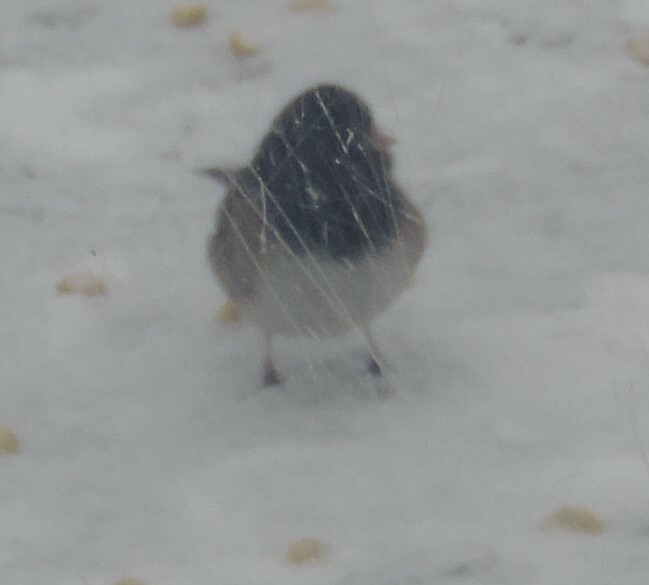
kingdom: Animalia
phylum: Chordata
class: Aves
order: Passeriformes
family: Passerellidae
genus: Junco
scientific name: Junco hyemalis
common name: Dark-eyed junco
